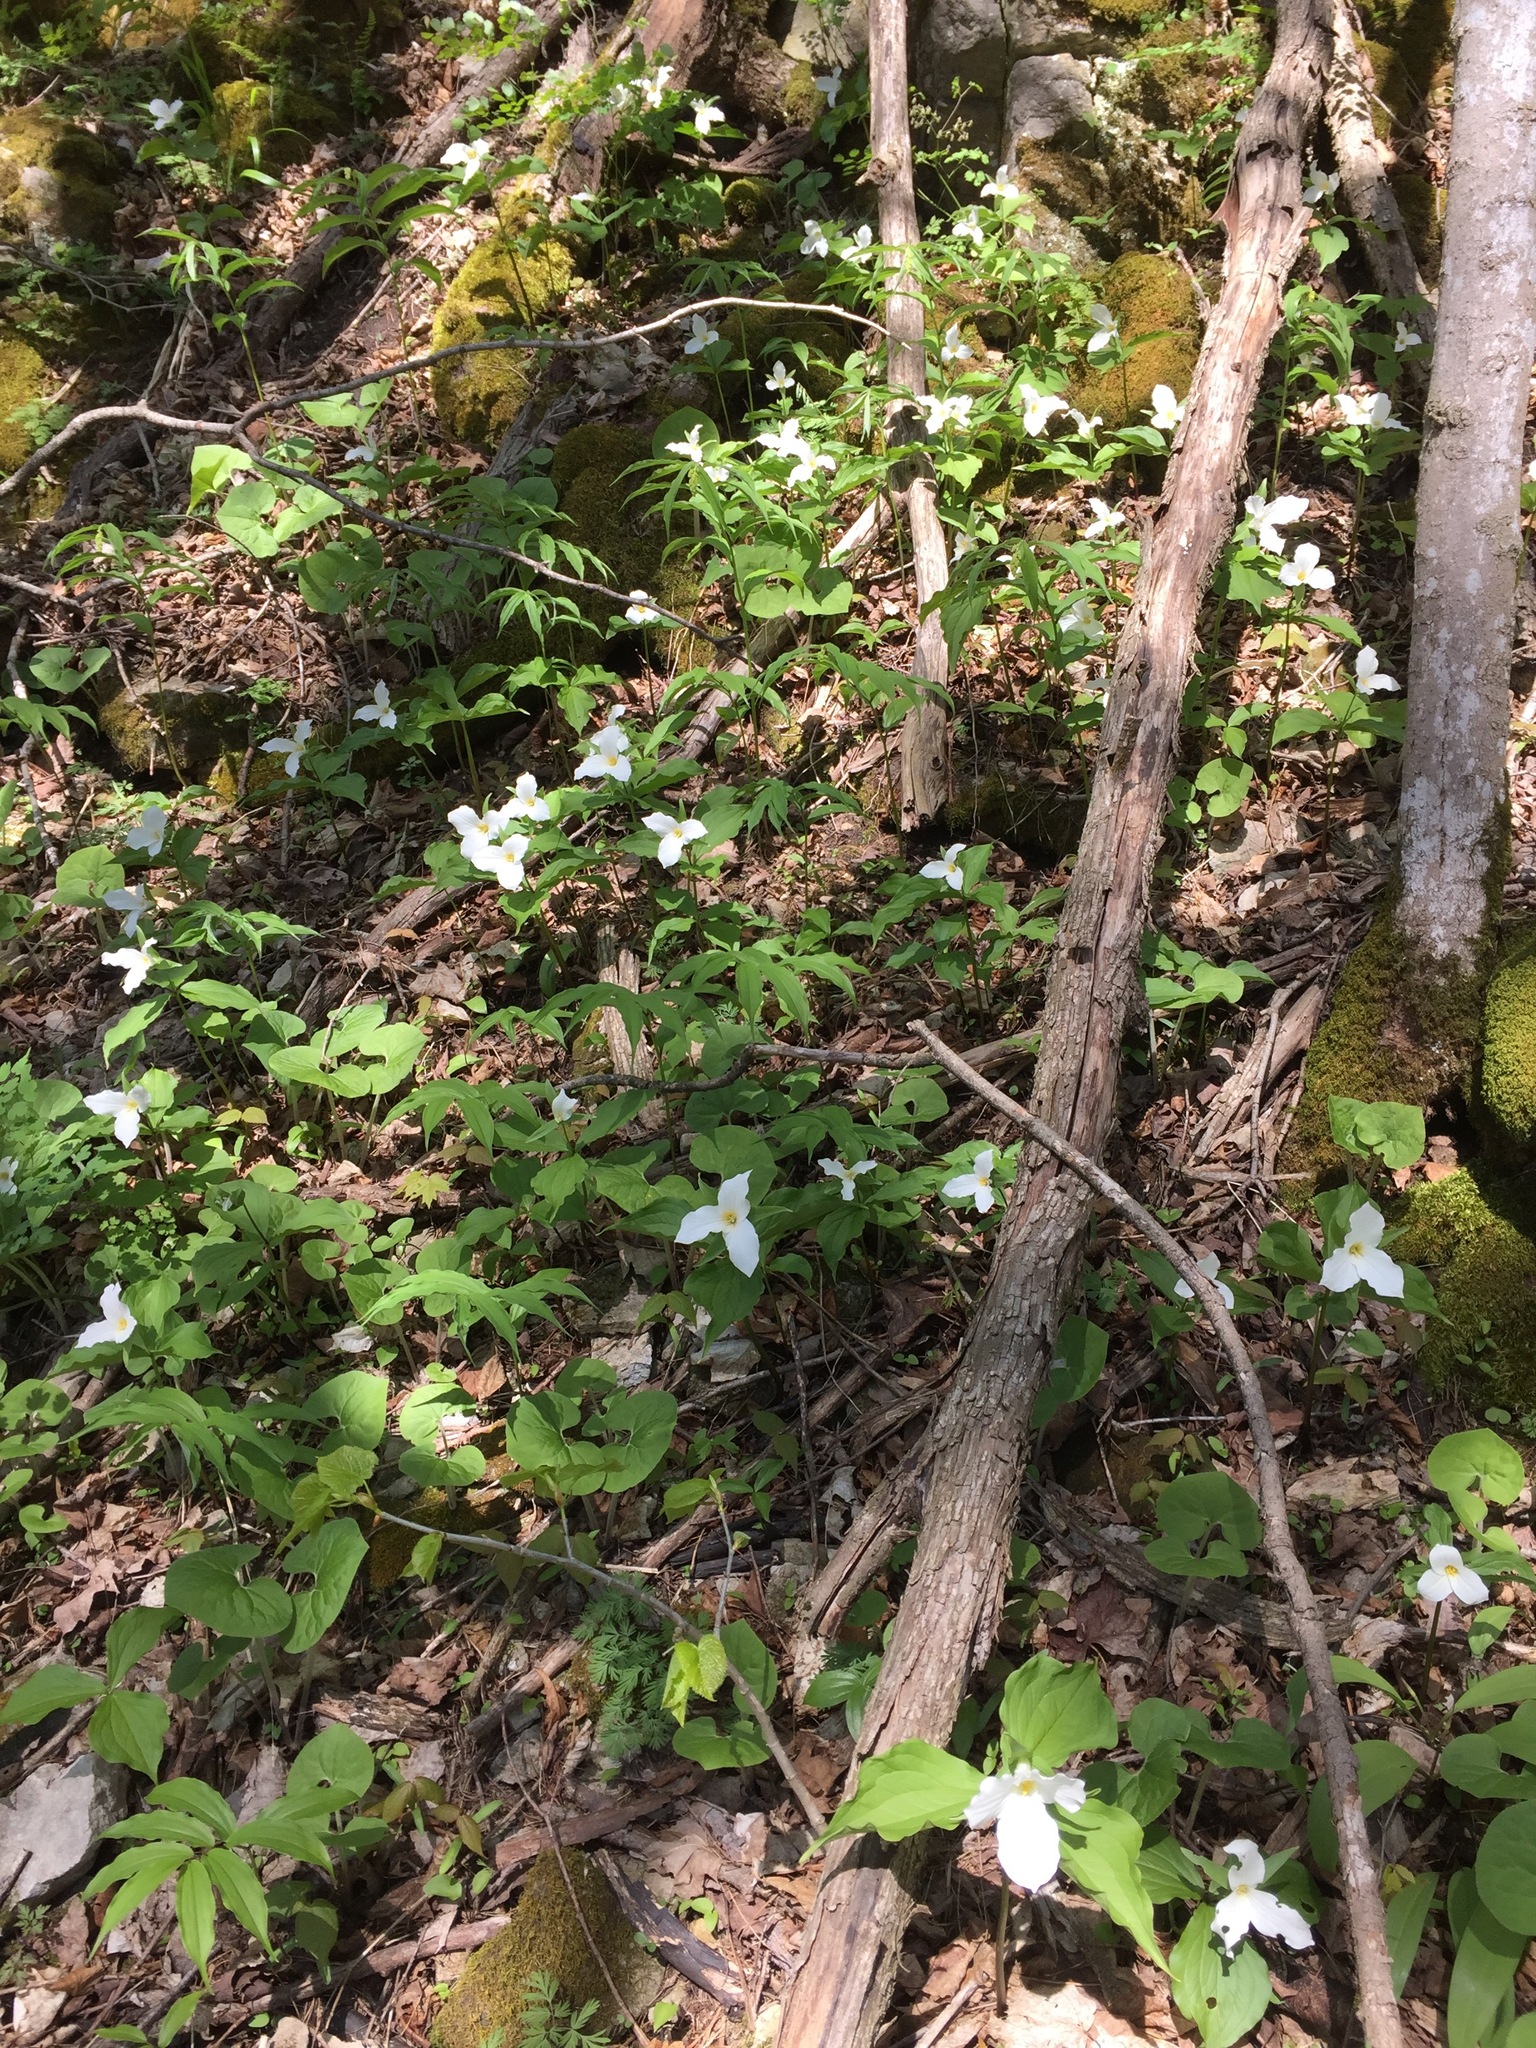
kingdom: Plantae
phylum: Tracheophyta
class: Liliopsida
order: Liliales
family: Melanthiaceae
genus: Trillium
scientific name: Trillium grandiflorum
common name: Great white trillium
